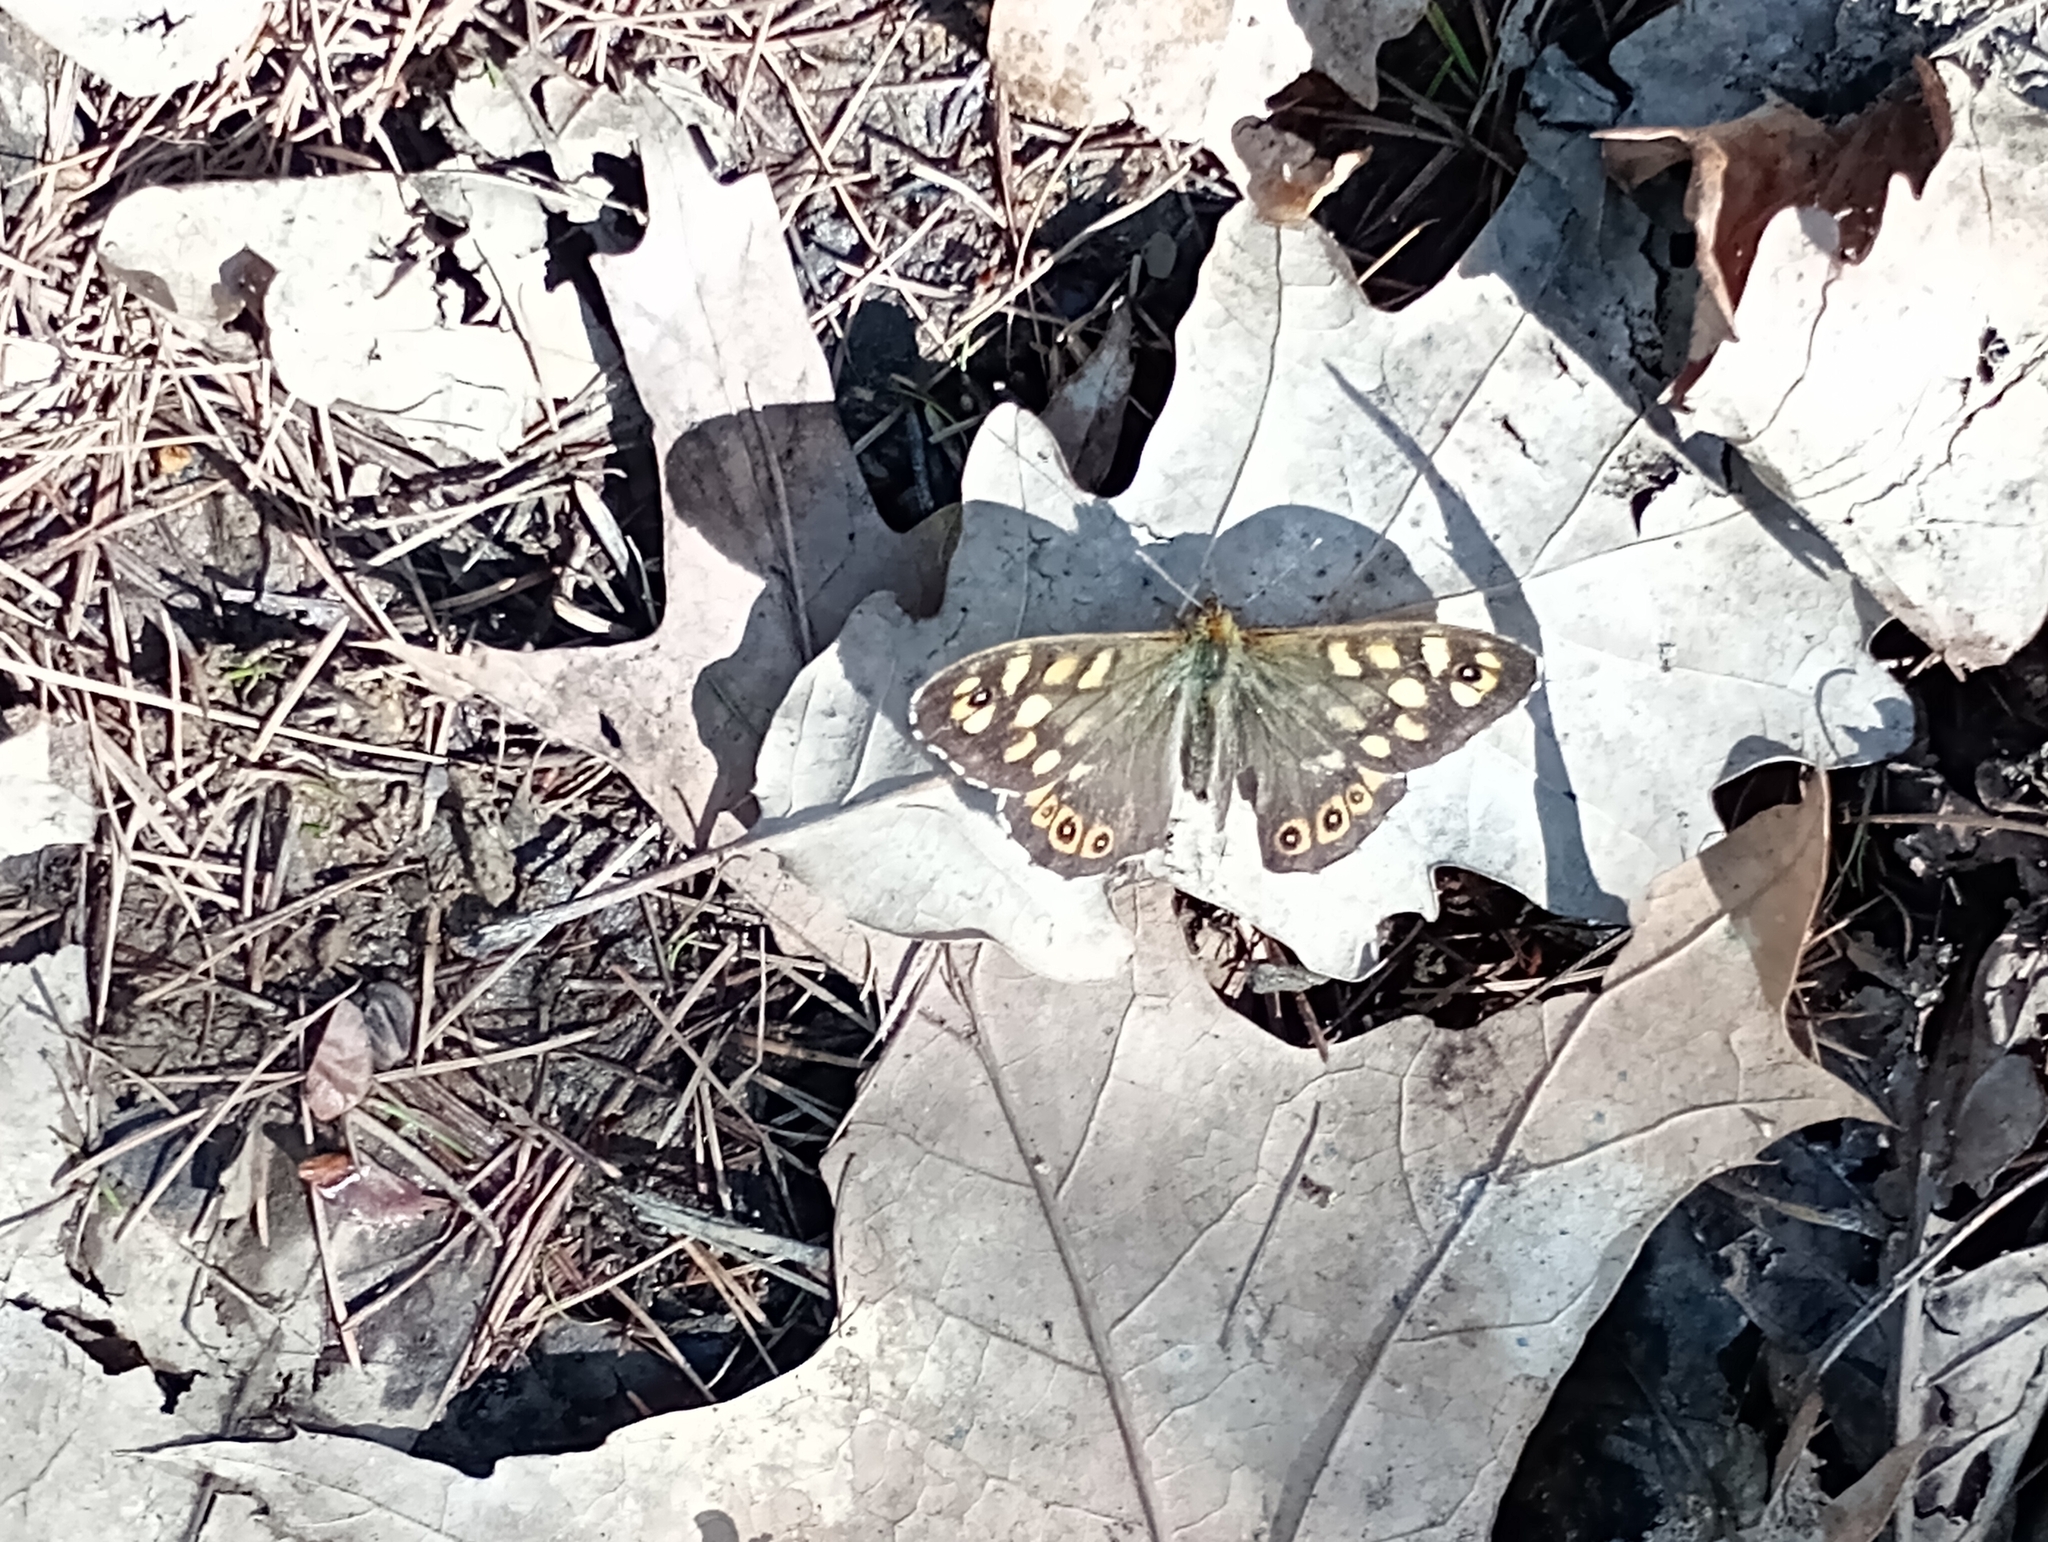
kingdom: Animalia
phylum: Arthropoda
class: Insecta
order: Lepidoptera
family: Nymphalidae
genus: Pararge
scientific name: Pararge aegeria
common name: Speckled wood
